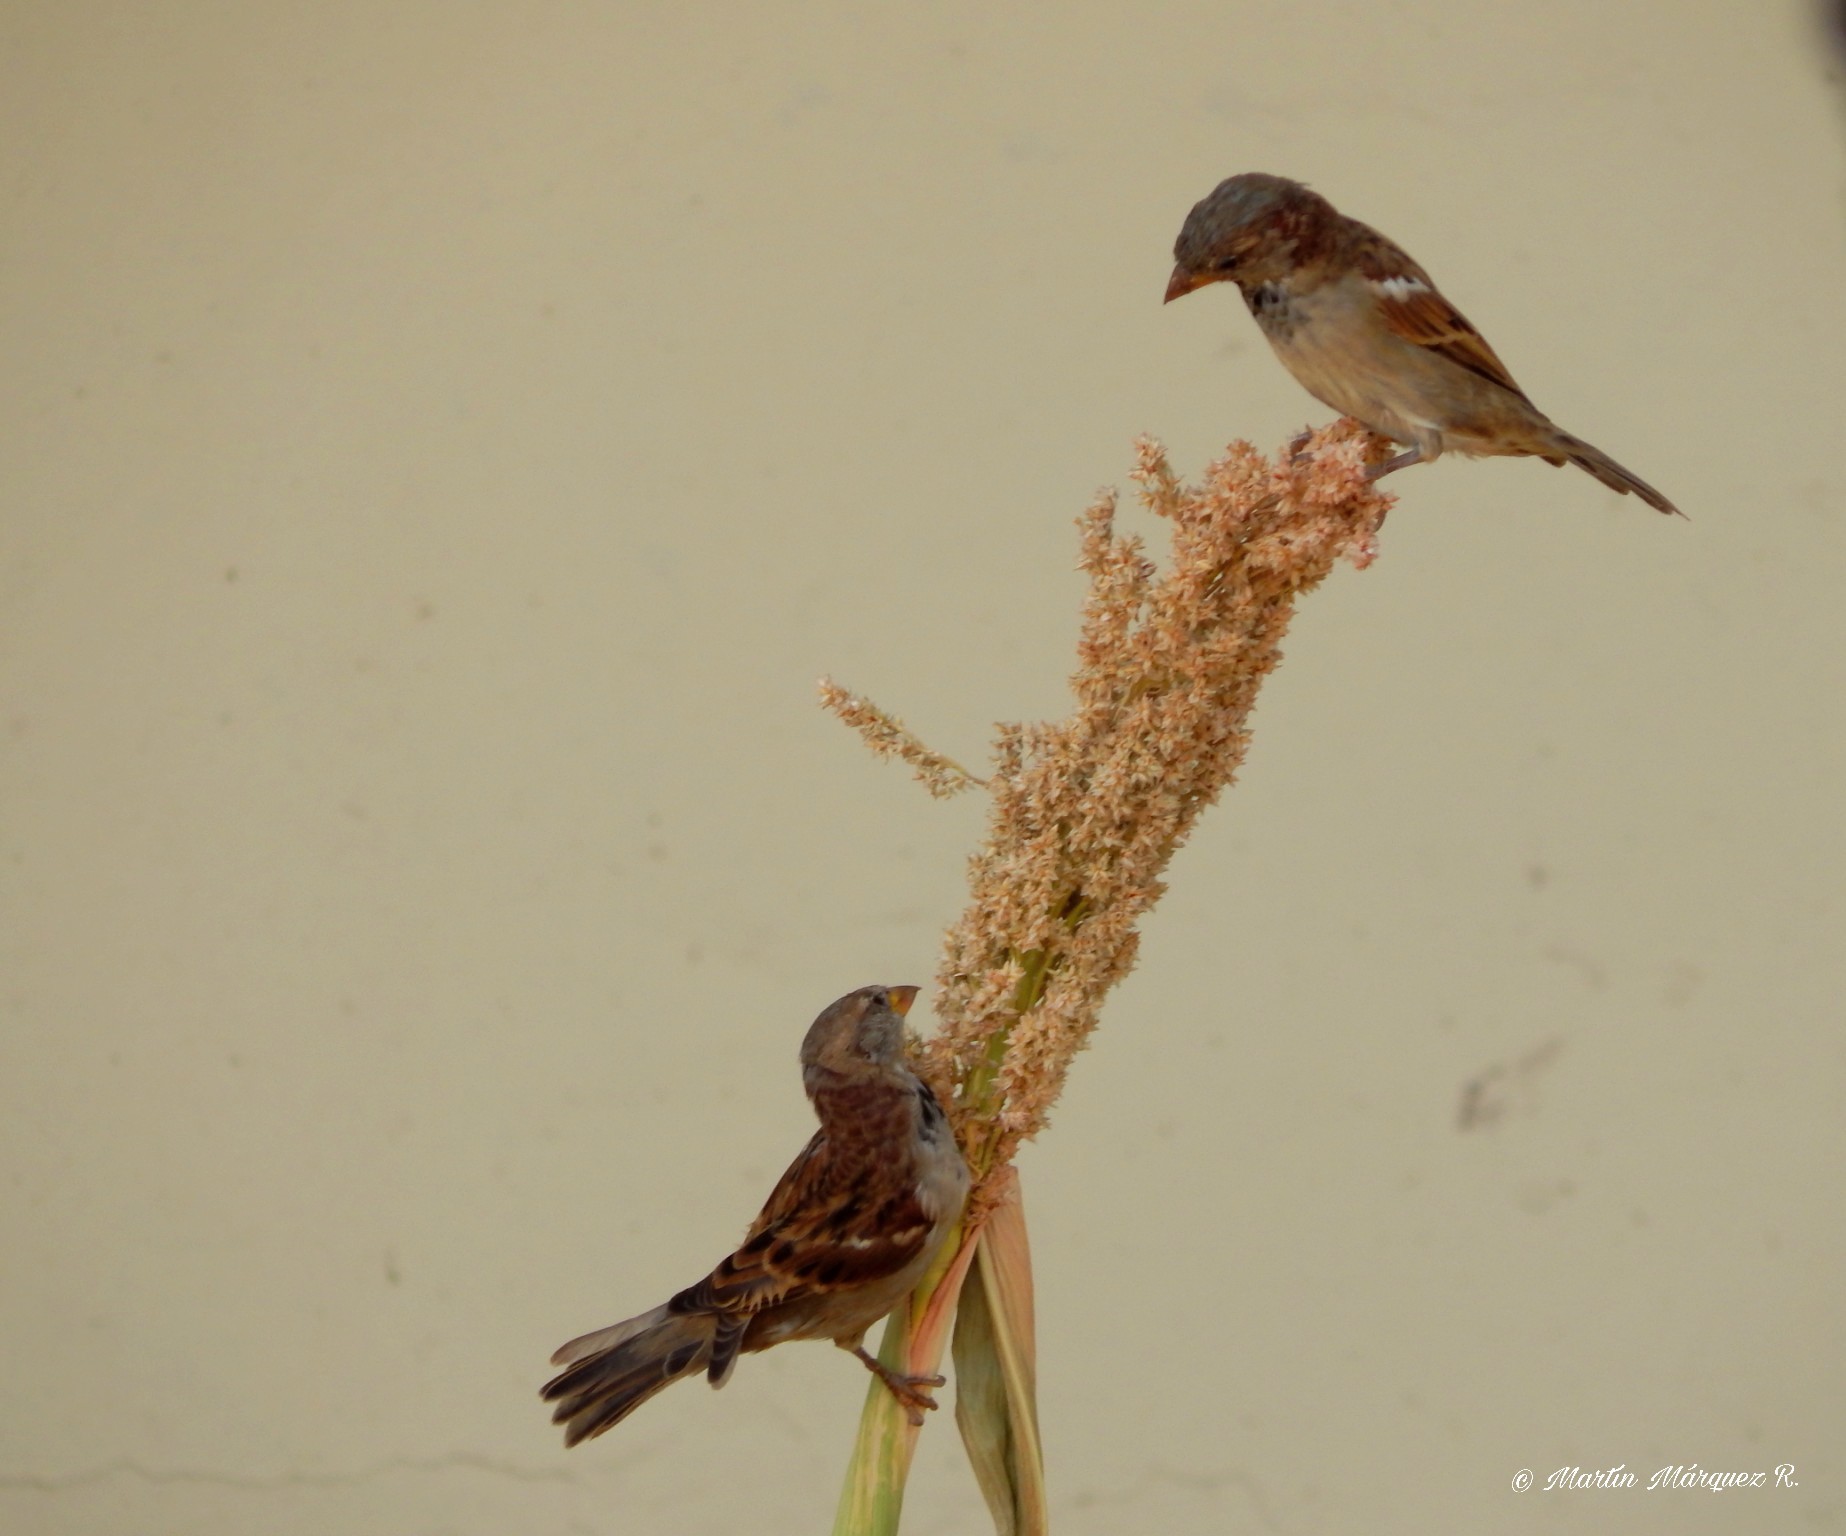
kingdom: Animalia
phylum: Chordata
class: Aves
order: Passeriformes
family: Passeridae
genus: Passer
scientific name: Passer domesticus
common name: House sparrow
